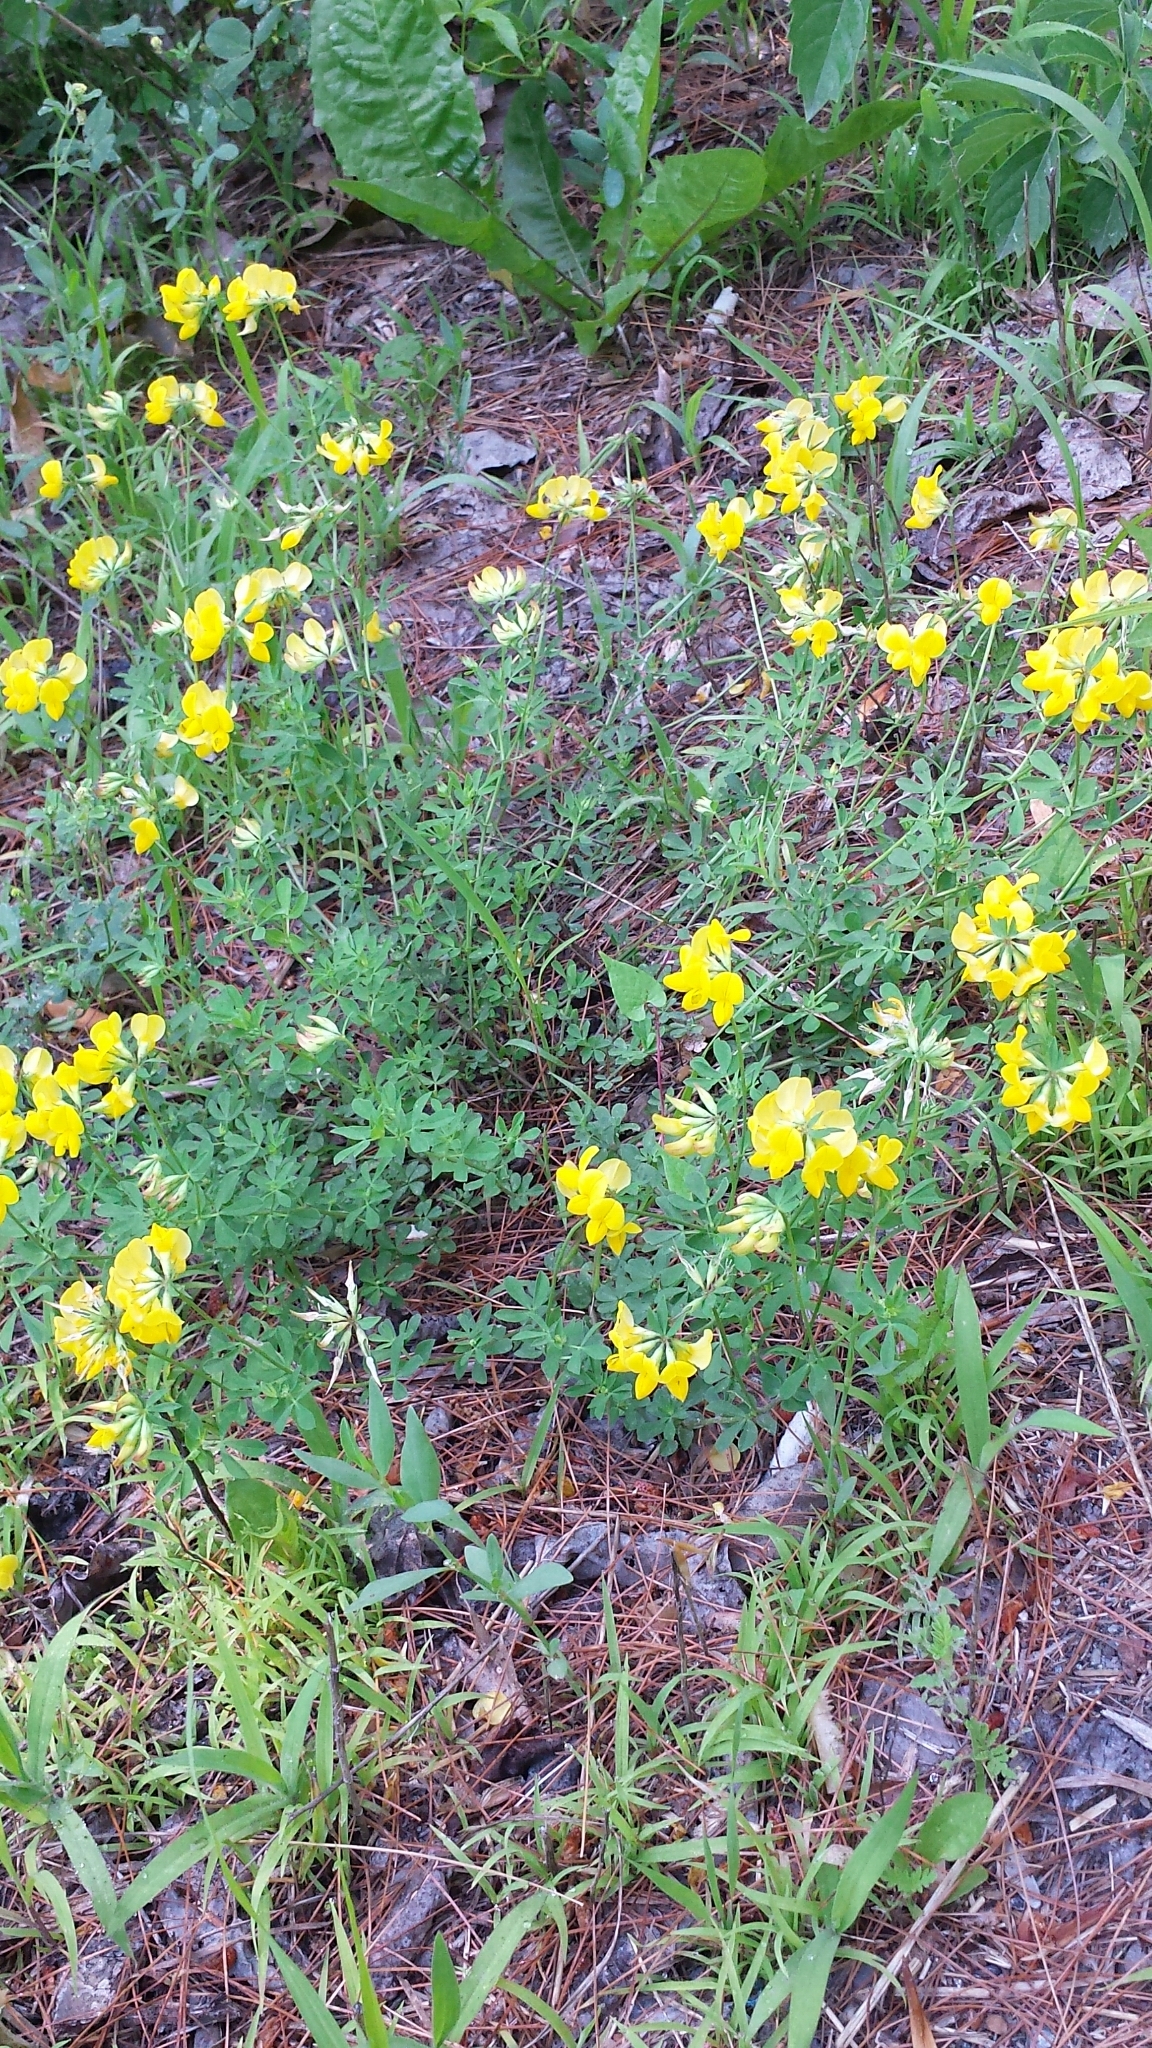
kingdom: Plantae
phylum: Tracheophyta
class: Magnoliopsida
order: Fabales
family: Fabaceae
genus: Lotus
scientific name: Lotus corniculatus
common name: Common bird's-foot-trefoil
